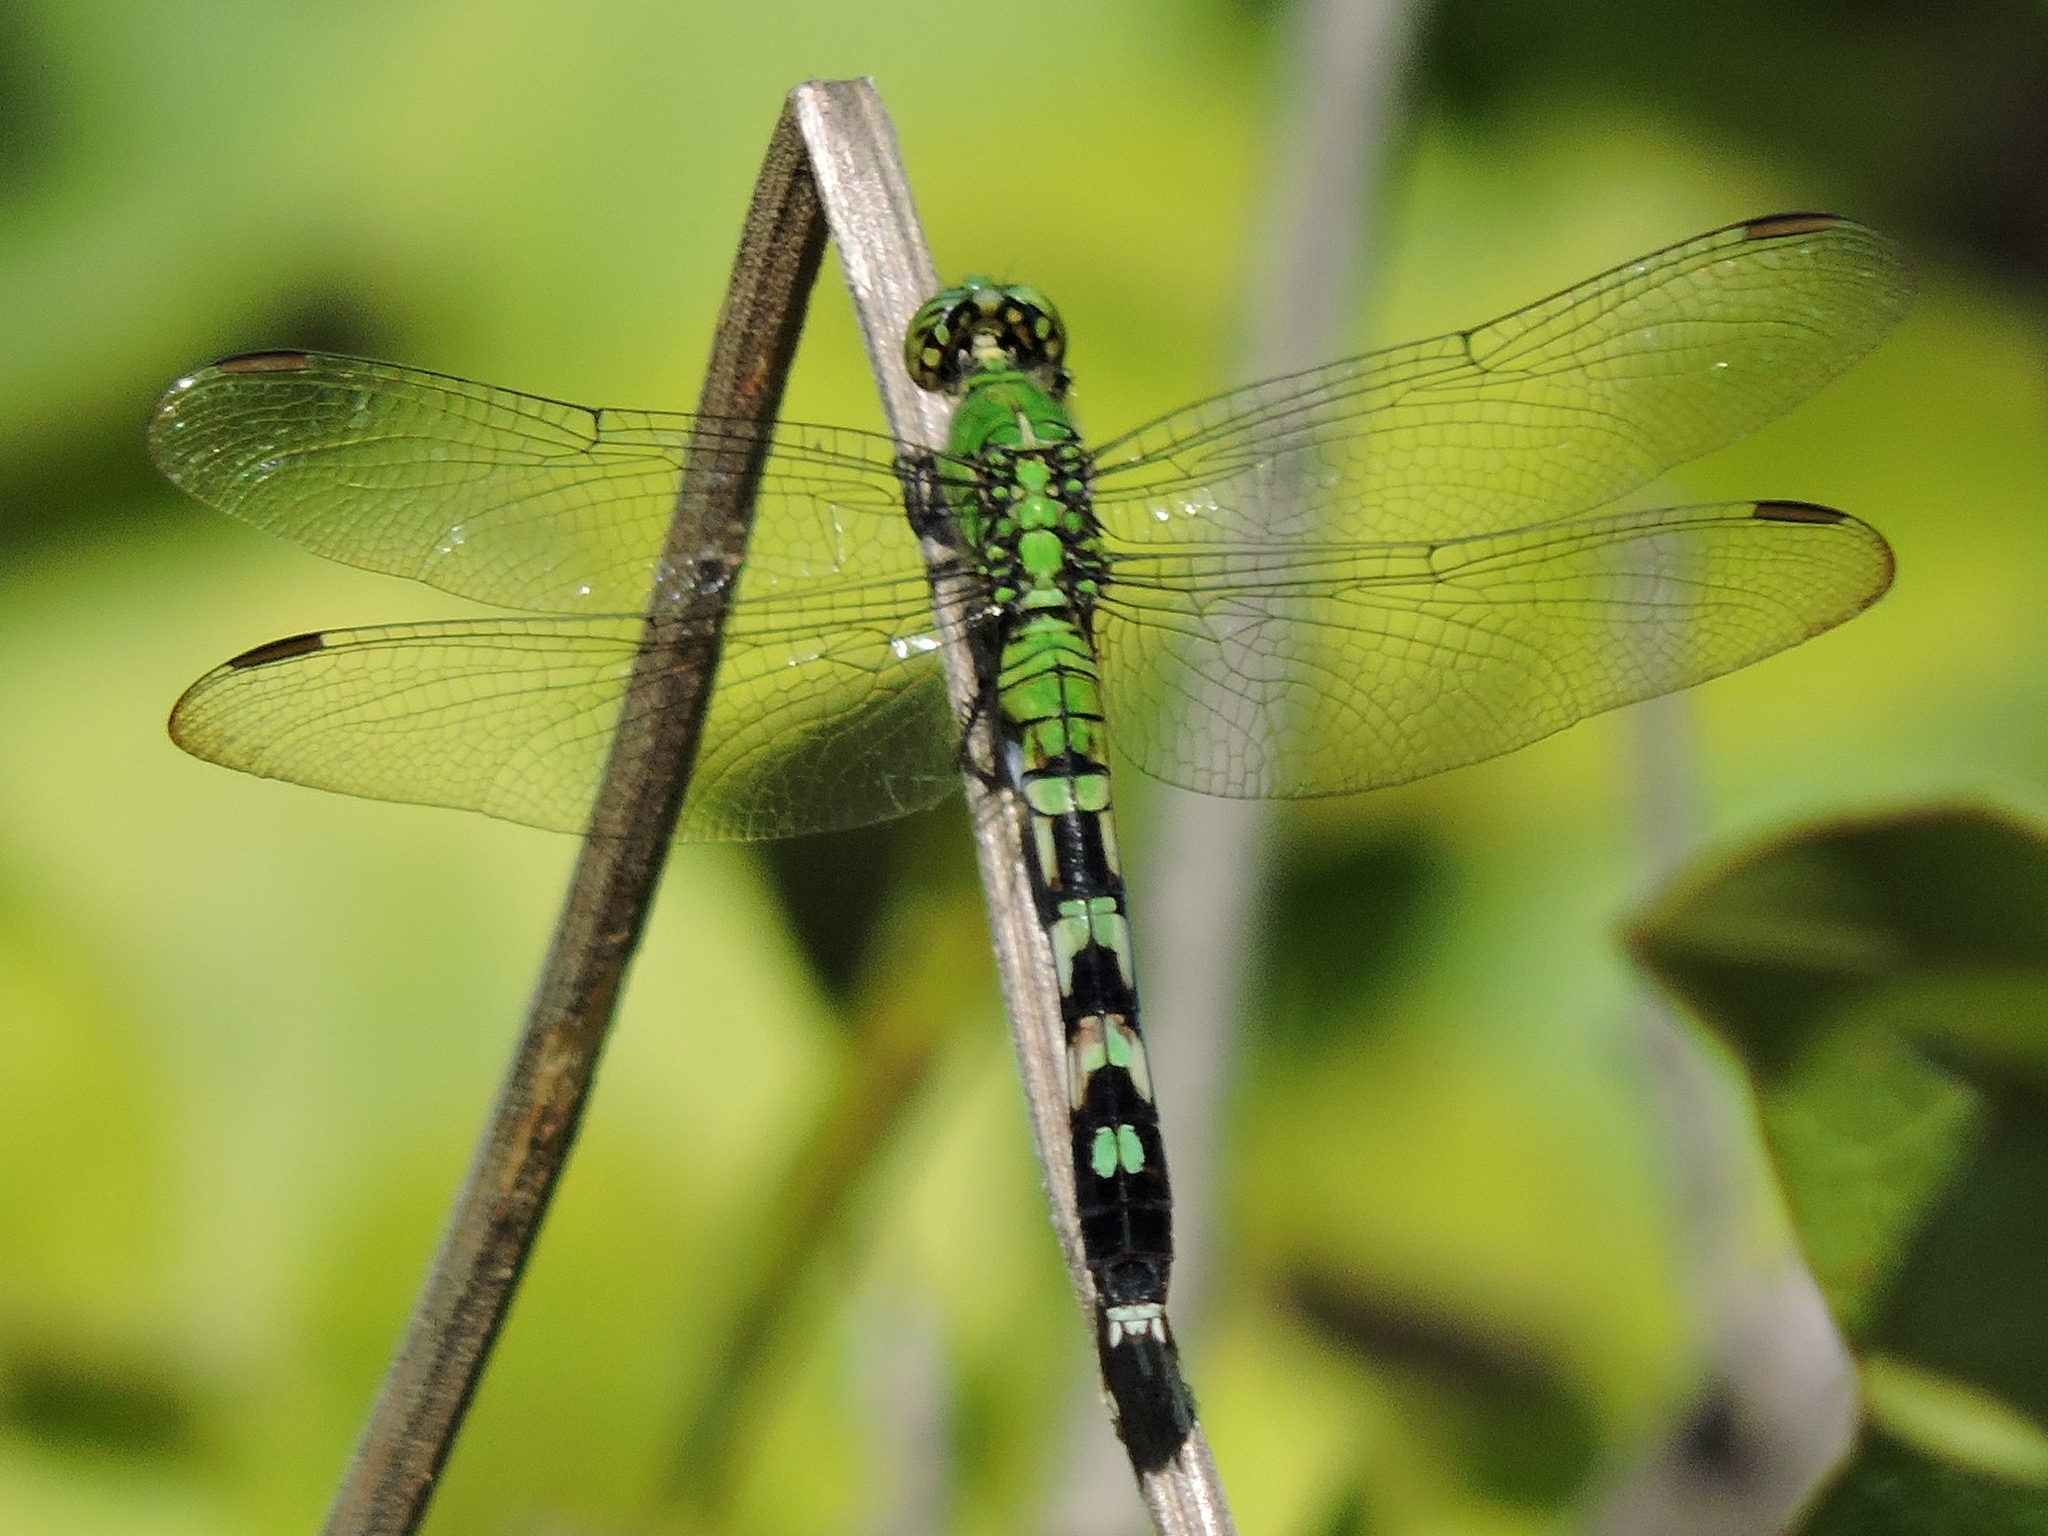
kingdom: Animalia
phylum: Arthropoda
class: Insecta
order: Odonata
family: Libellulidae
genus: Erythemis
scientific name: Erythemis simplicicollis
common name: Eastern pondhawk
